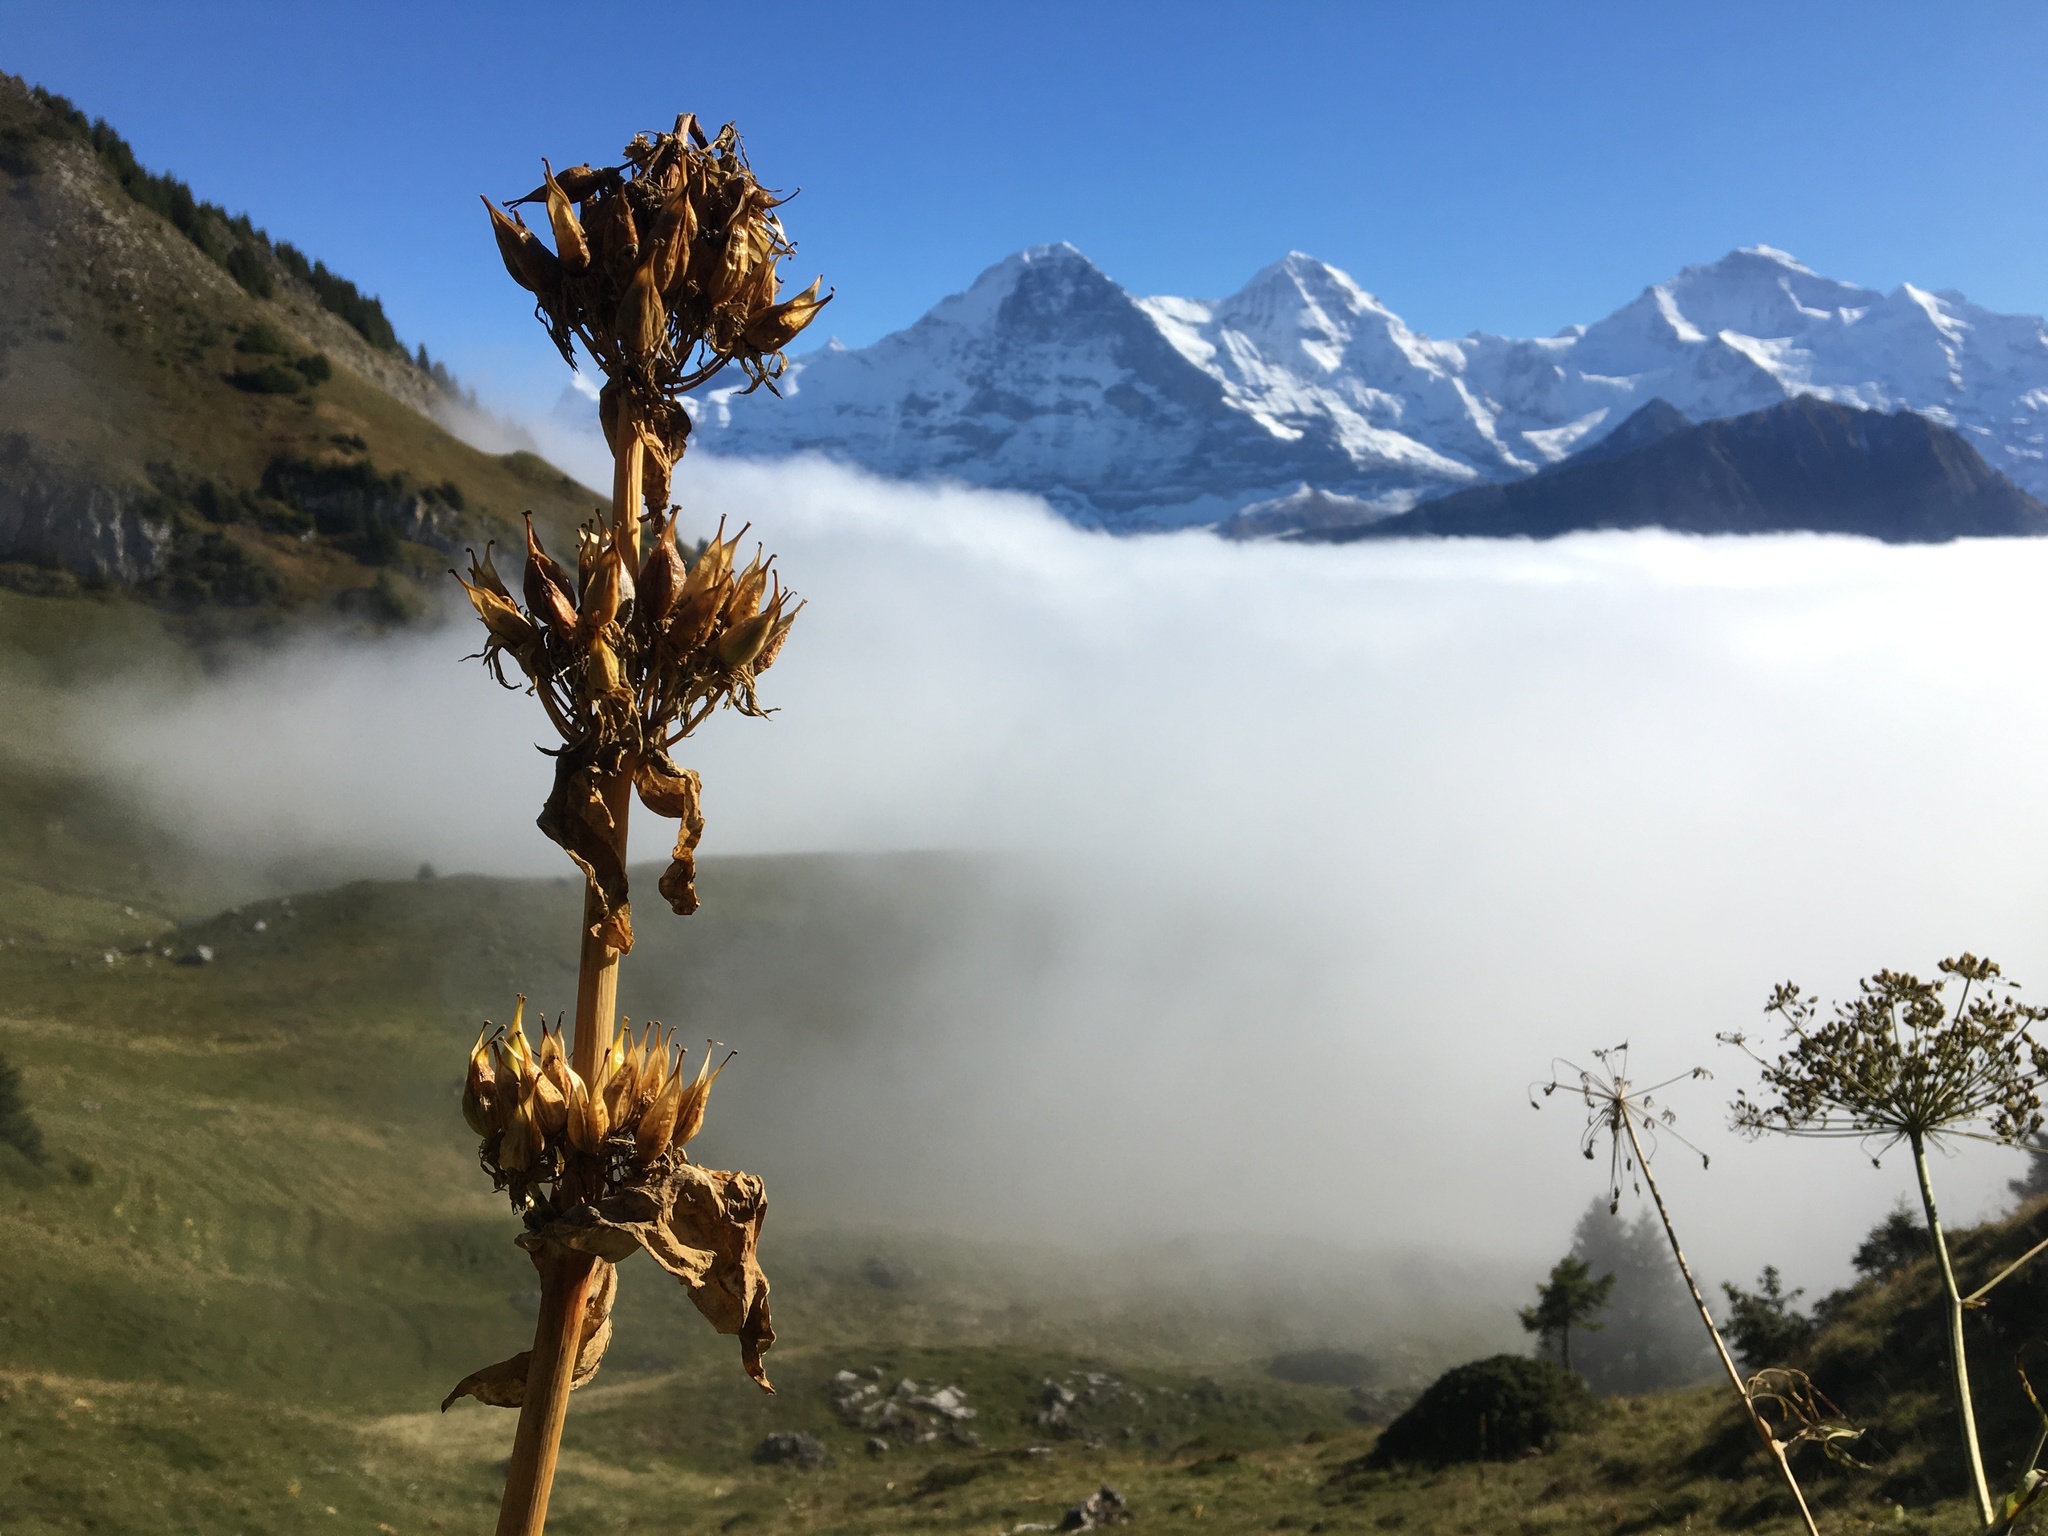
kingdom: Plantae
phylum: Tracheophyta
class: Magnoliopsida
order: Gentianales
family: Gentianaceae
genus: Gentiana
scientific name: Gentiana lutea
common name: Great yellow gentian
